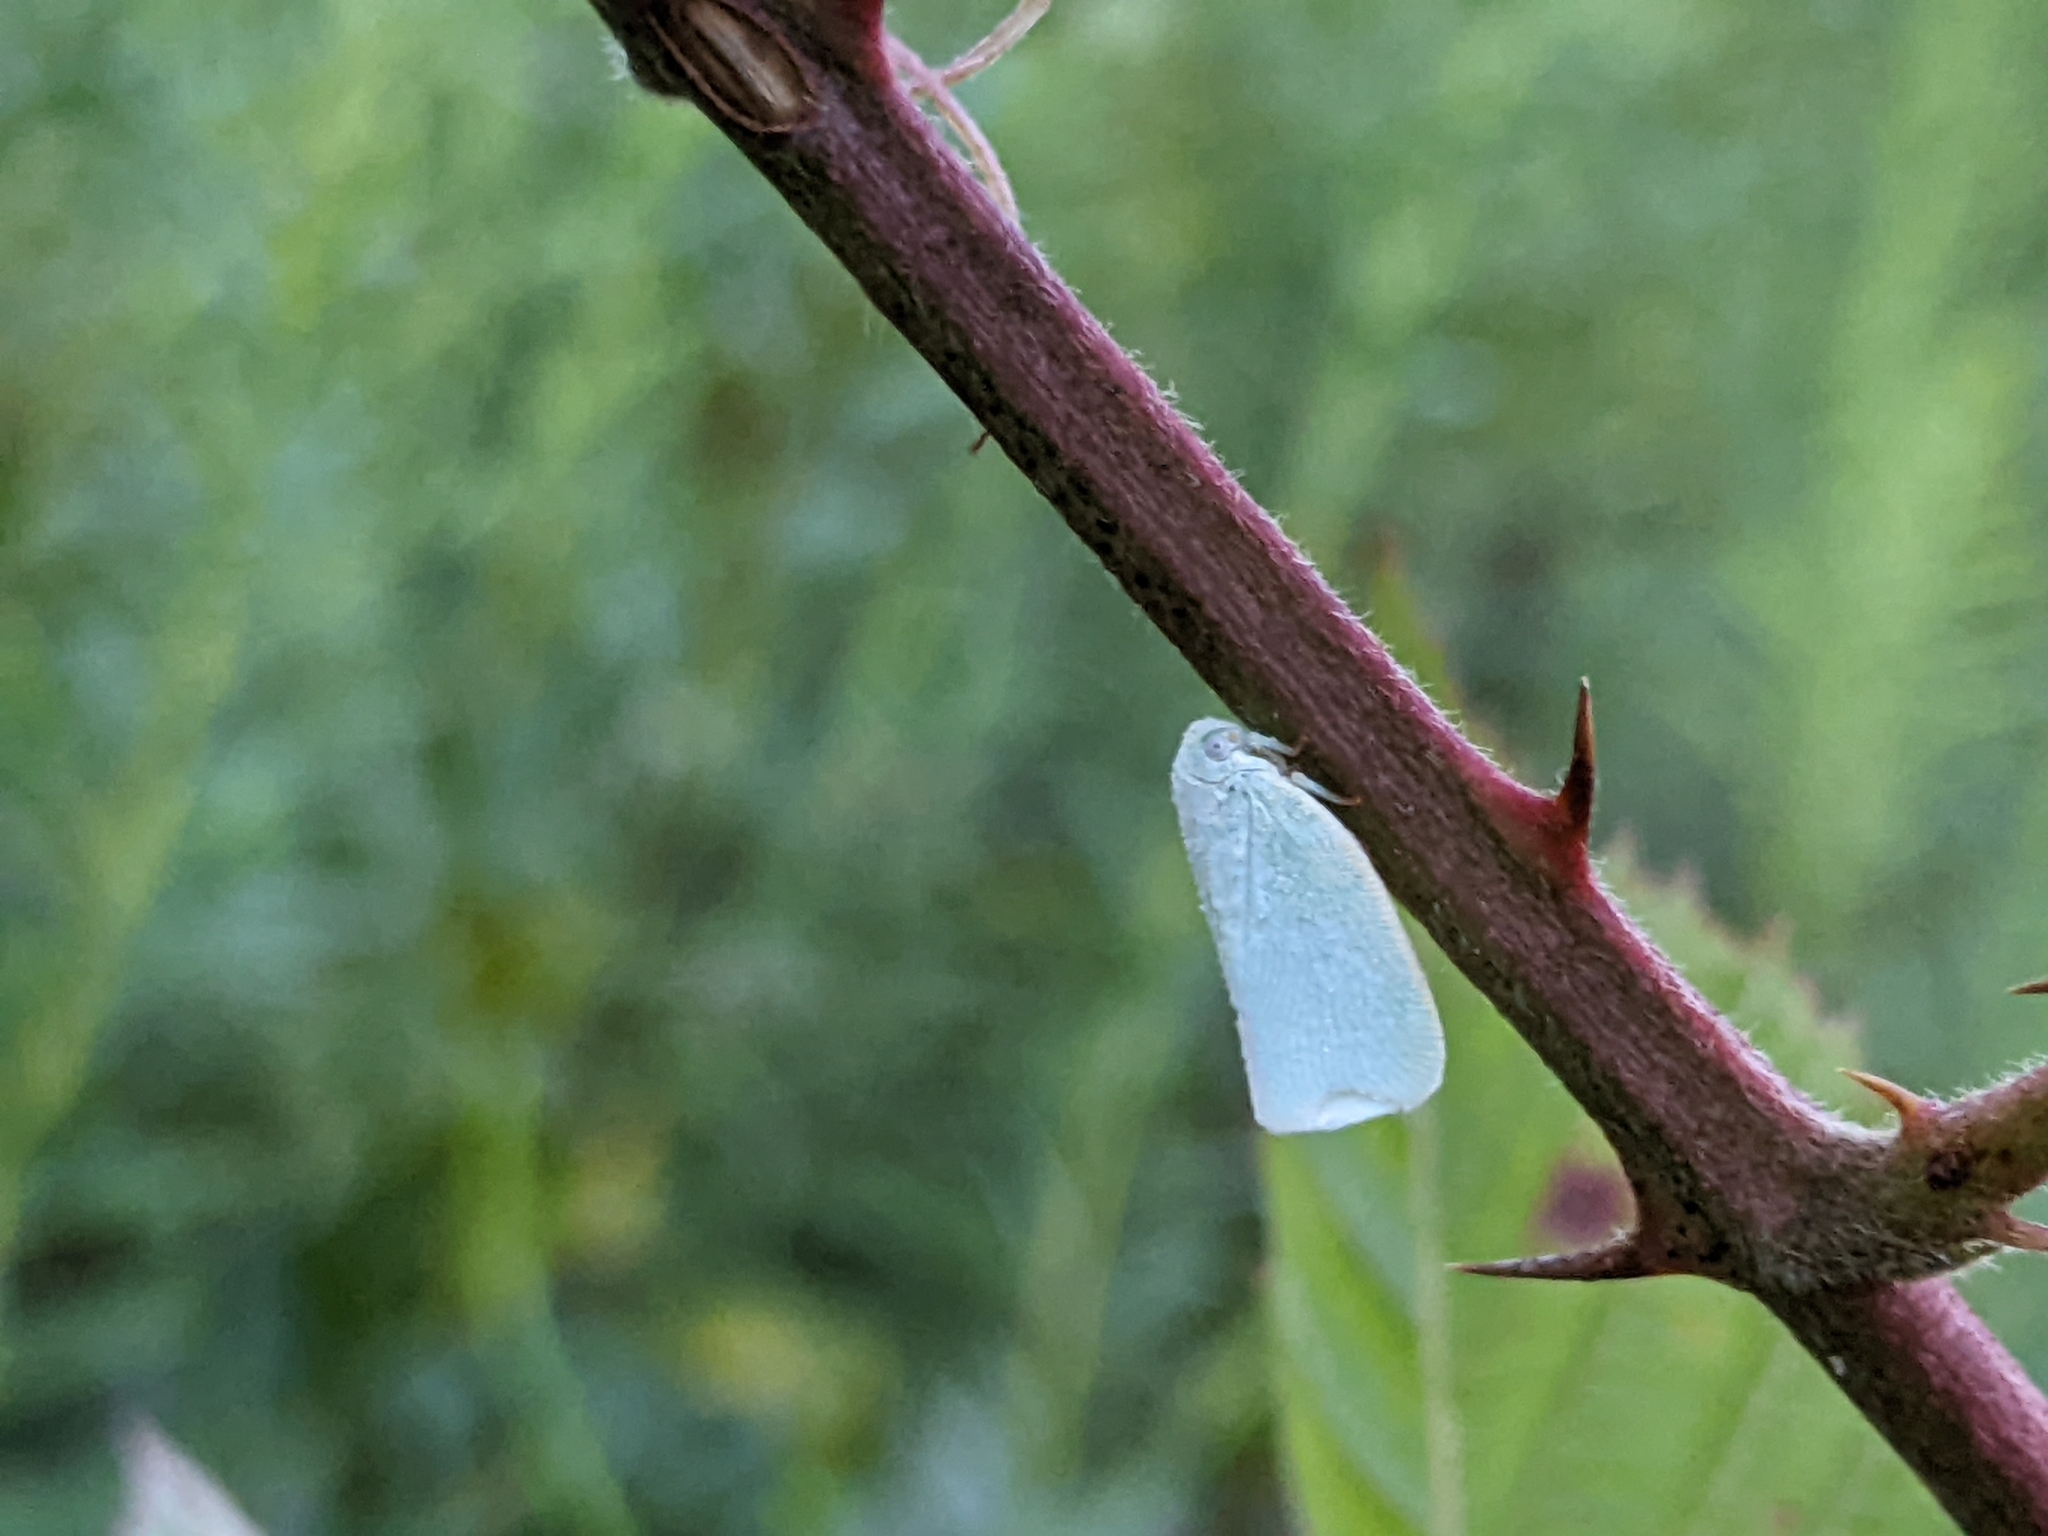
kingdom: Animalia
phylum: Arthropoda
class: Insecta
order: Hemiptera
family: Flatidae
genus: Flatormenis
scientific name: Flatormenis proxima
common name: Northern flatid planthopper
